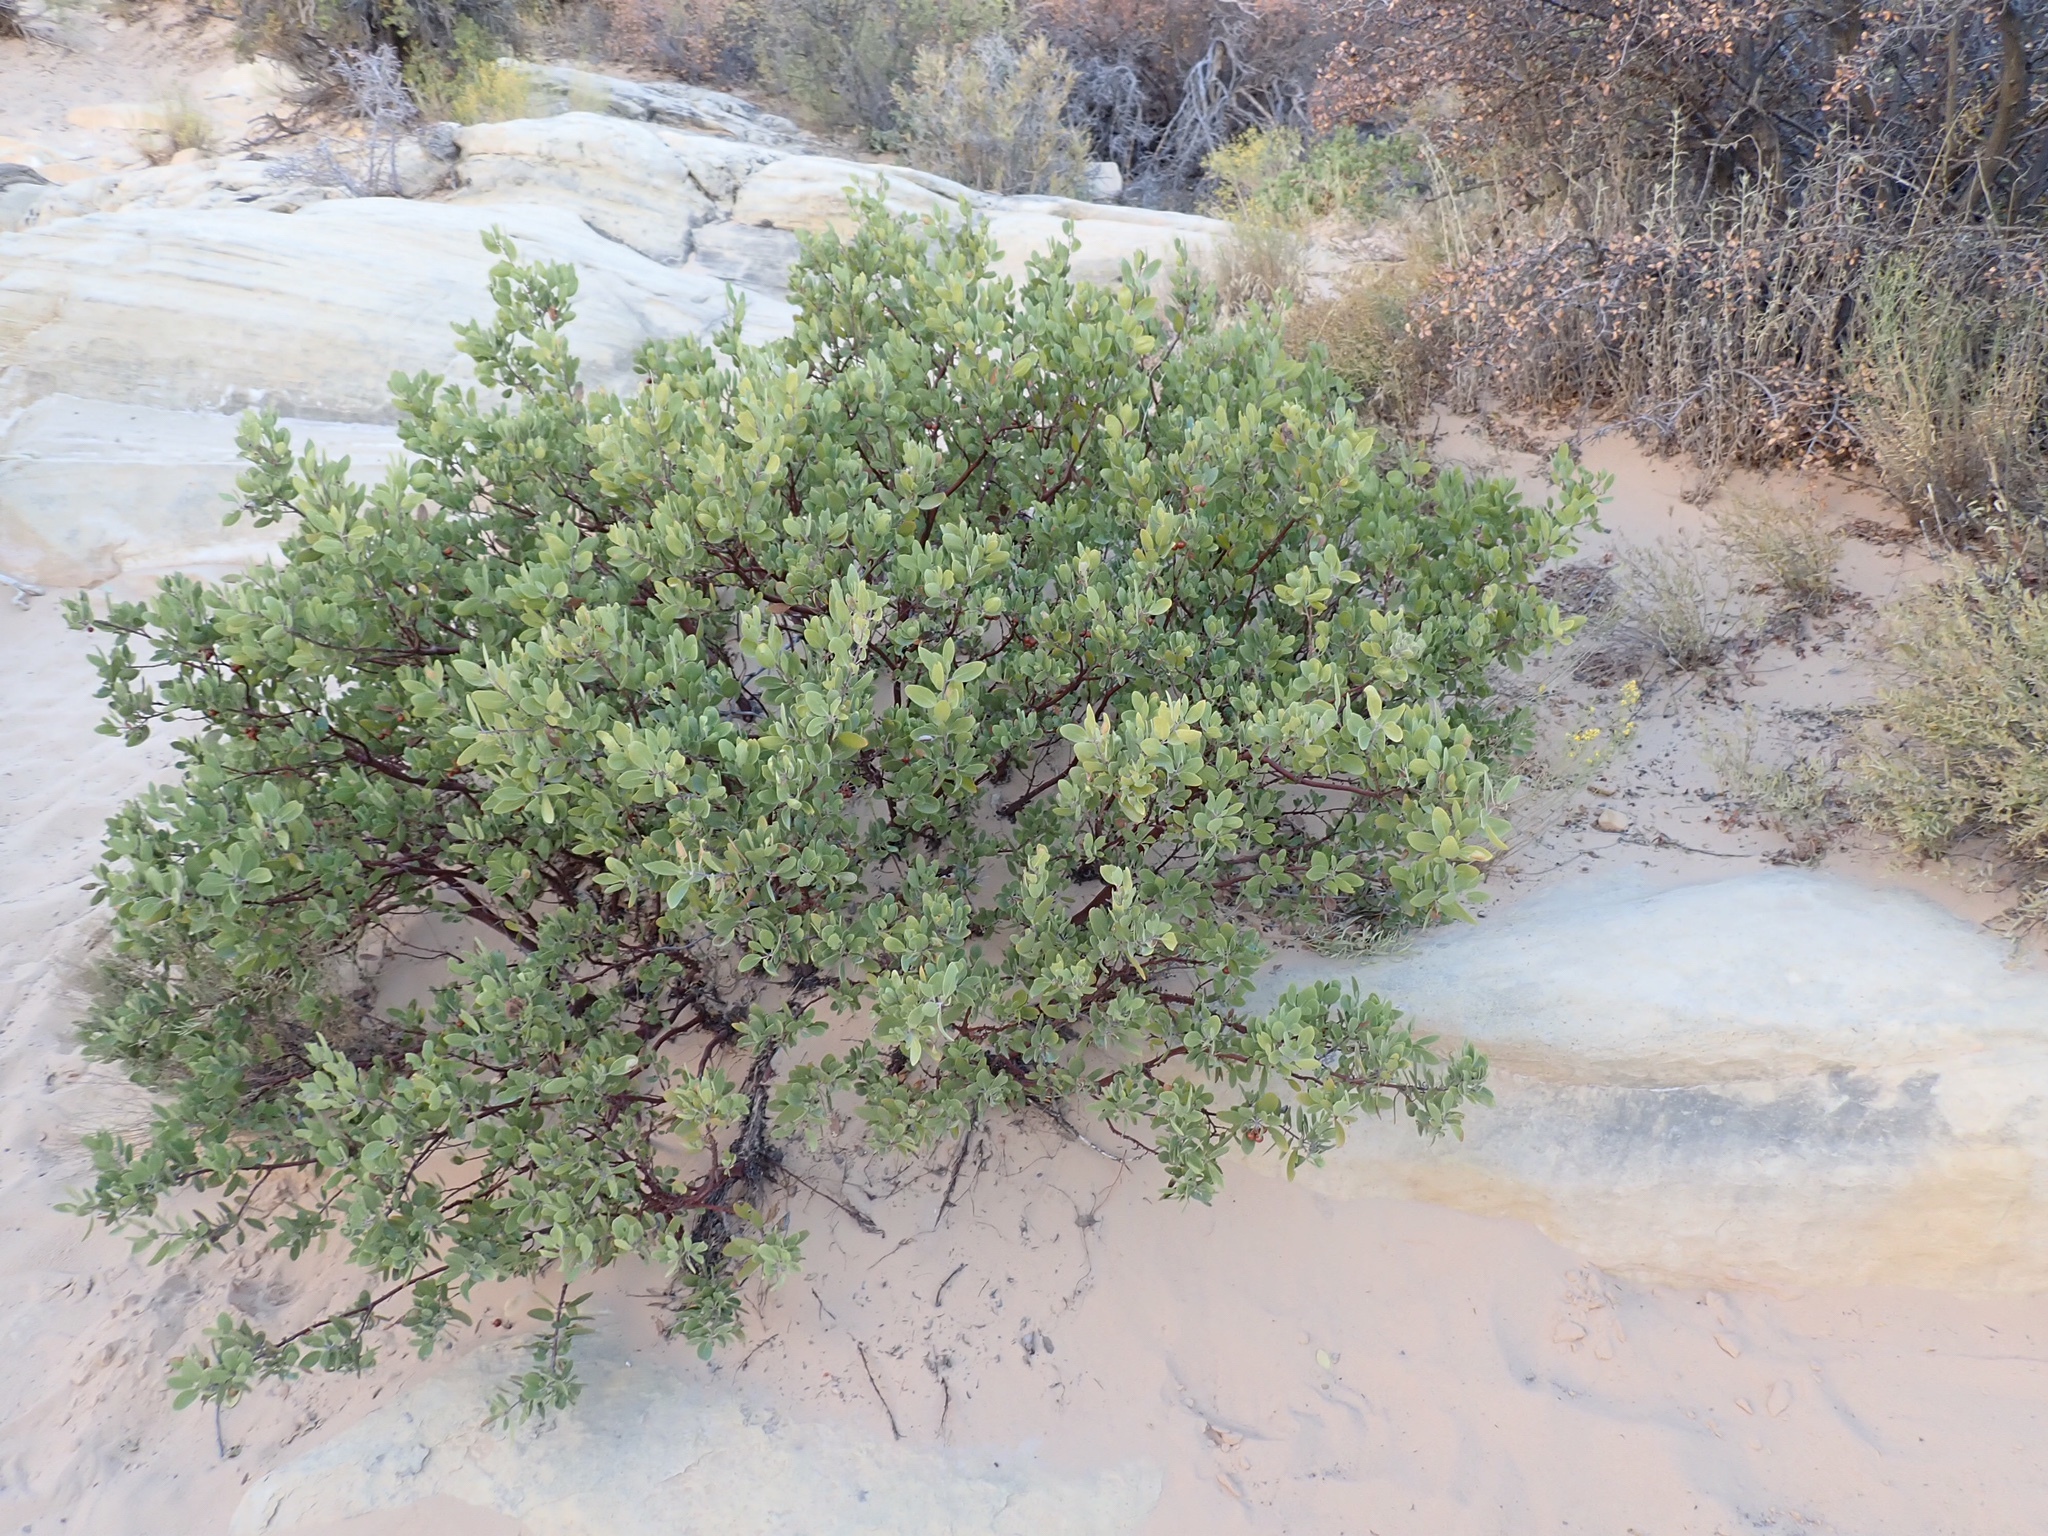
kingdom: Plantae
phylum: Tracheophyta
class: Magnoliopsida
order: Ericales
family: Ericaceae
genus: Arctostaphylos
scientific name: Arctostaphylos pungens
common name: Mexican manzanita
